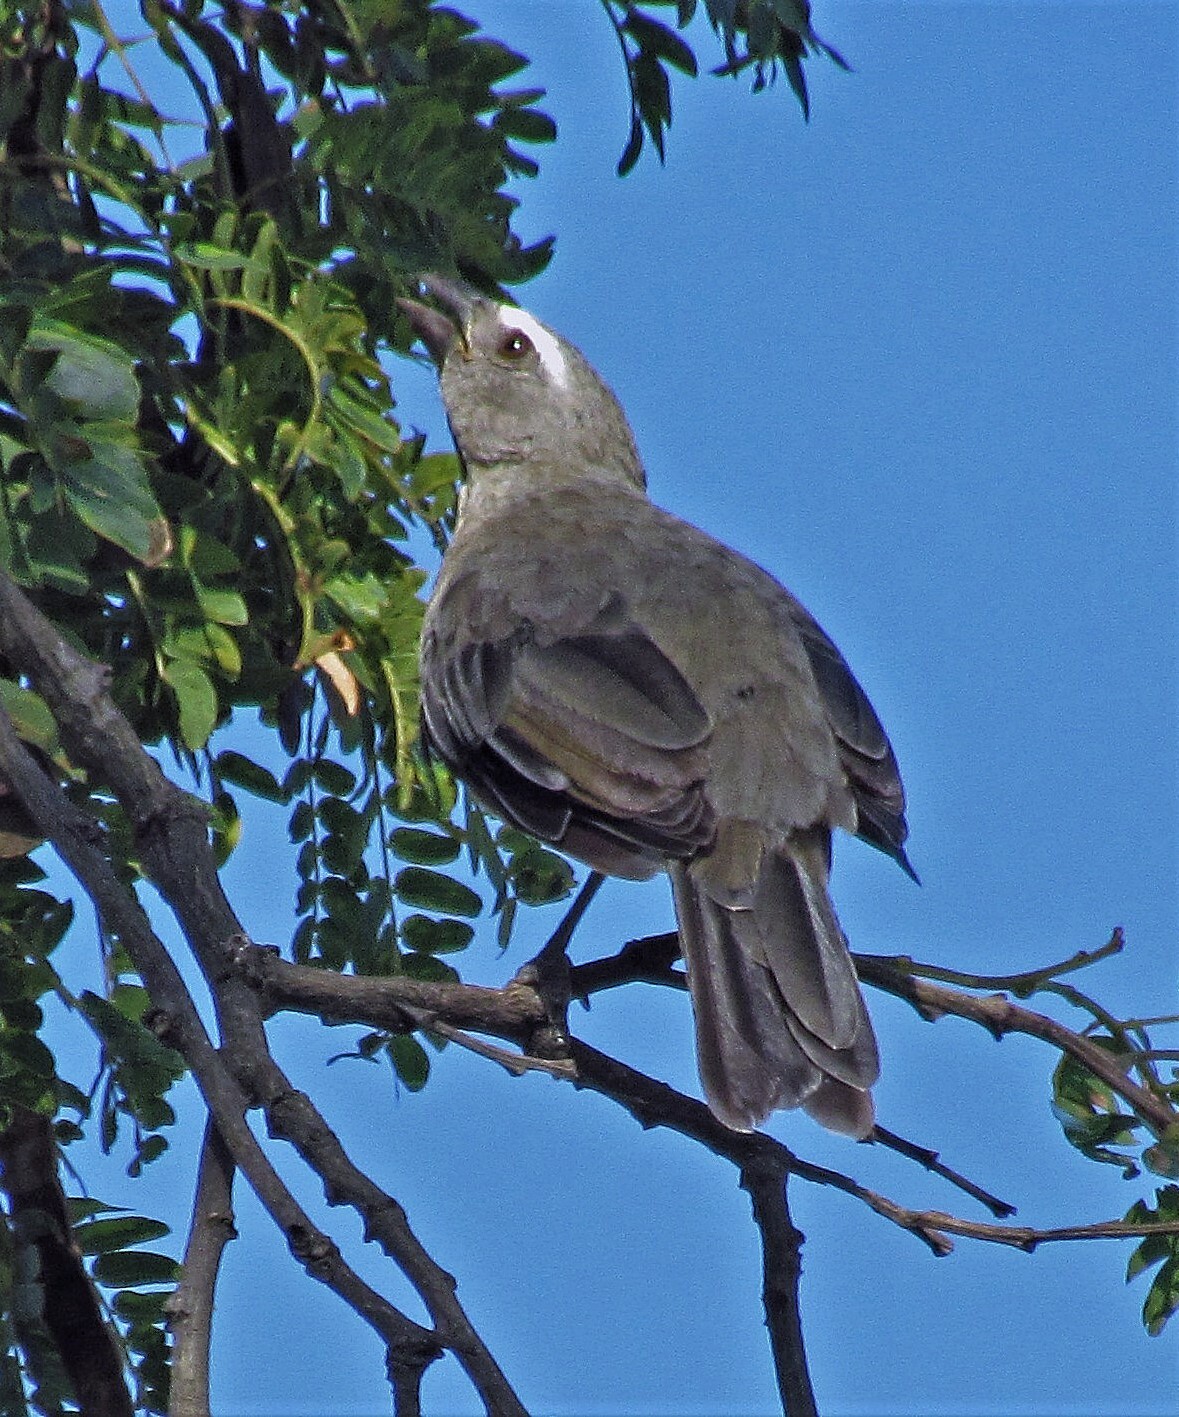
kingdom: Animalia
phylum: Chordata
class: Aves
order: Passeriformes
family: Thraupidae
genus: Saltator
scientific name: Saltator coerulescens
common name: Grayish saltator
